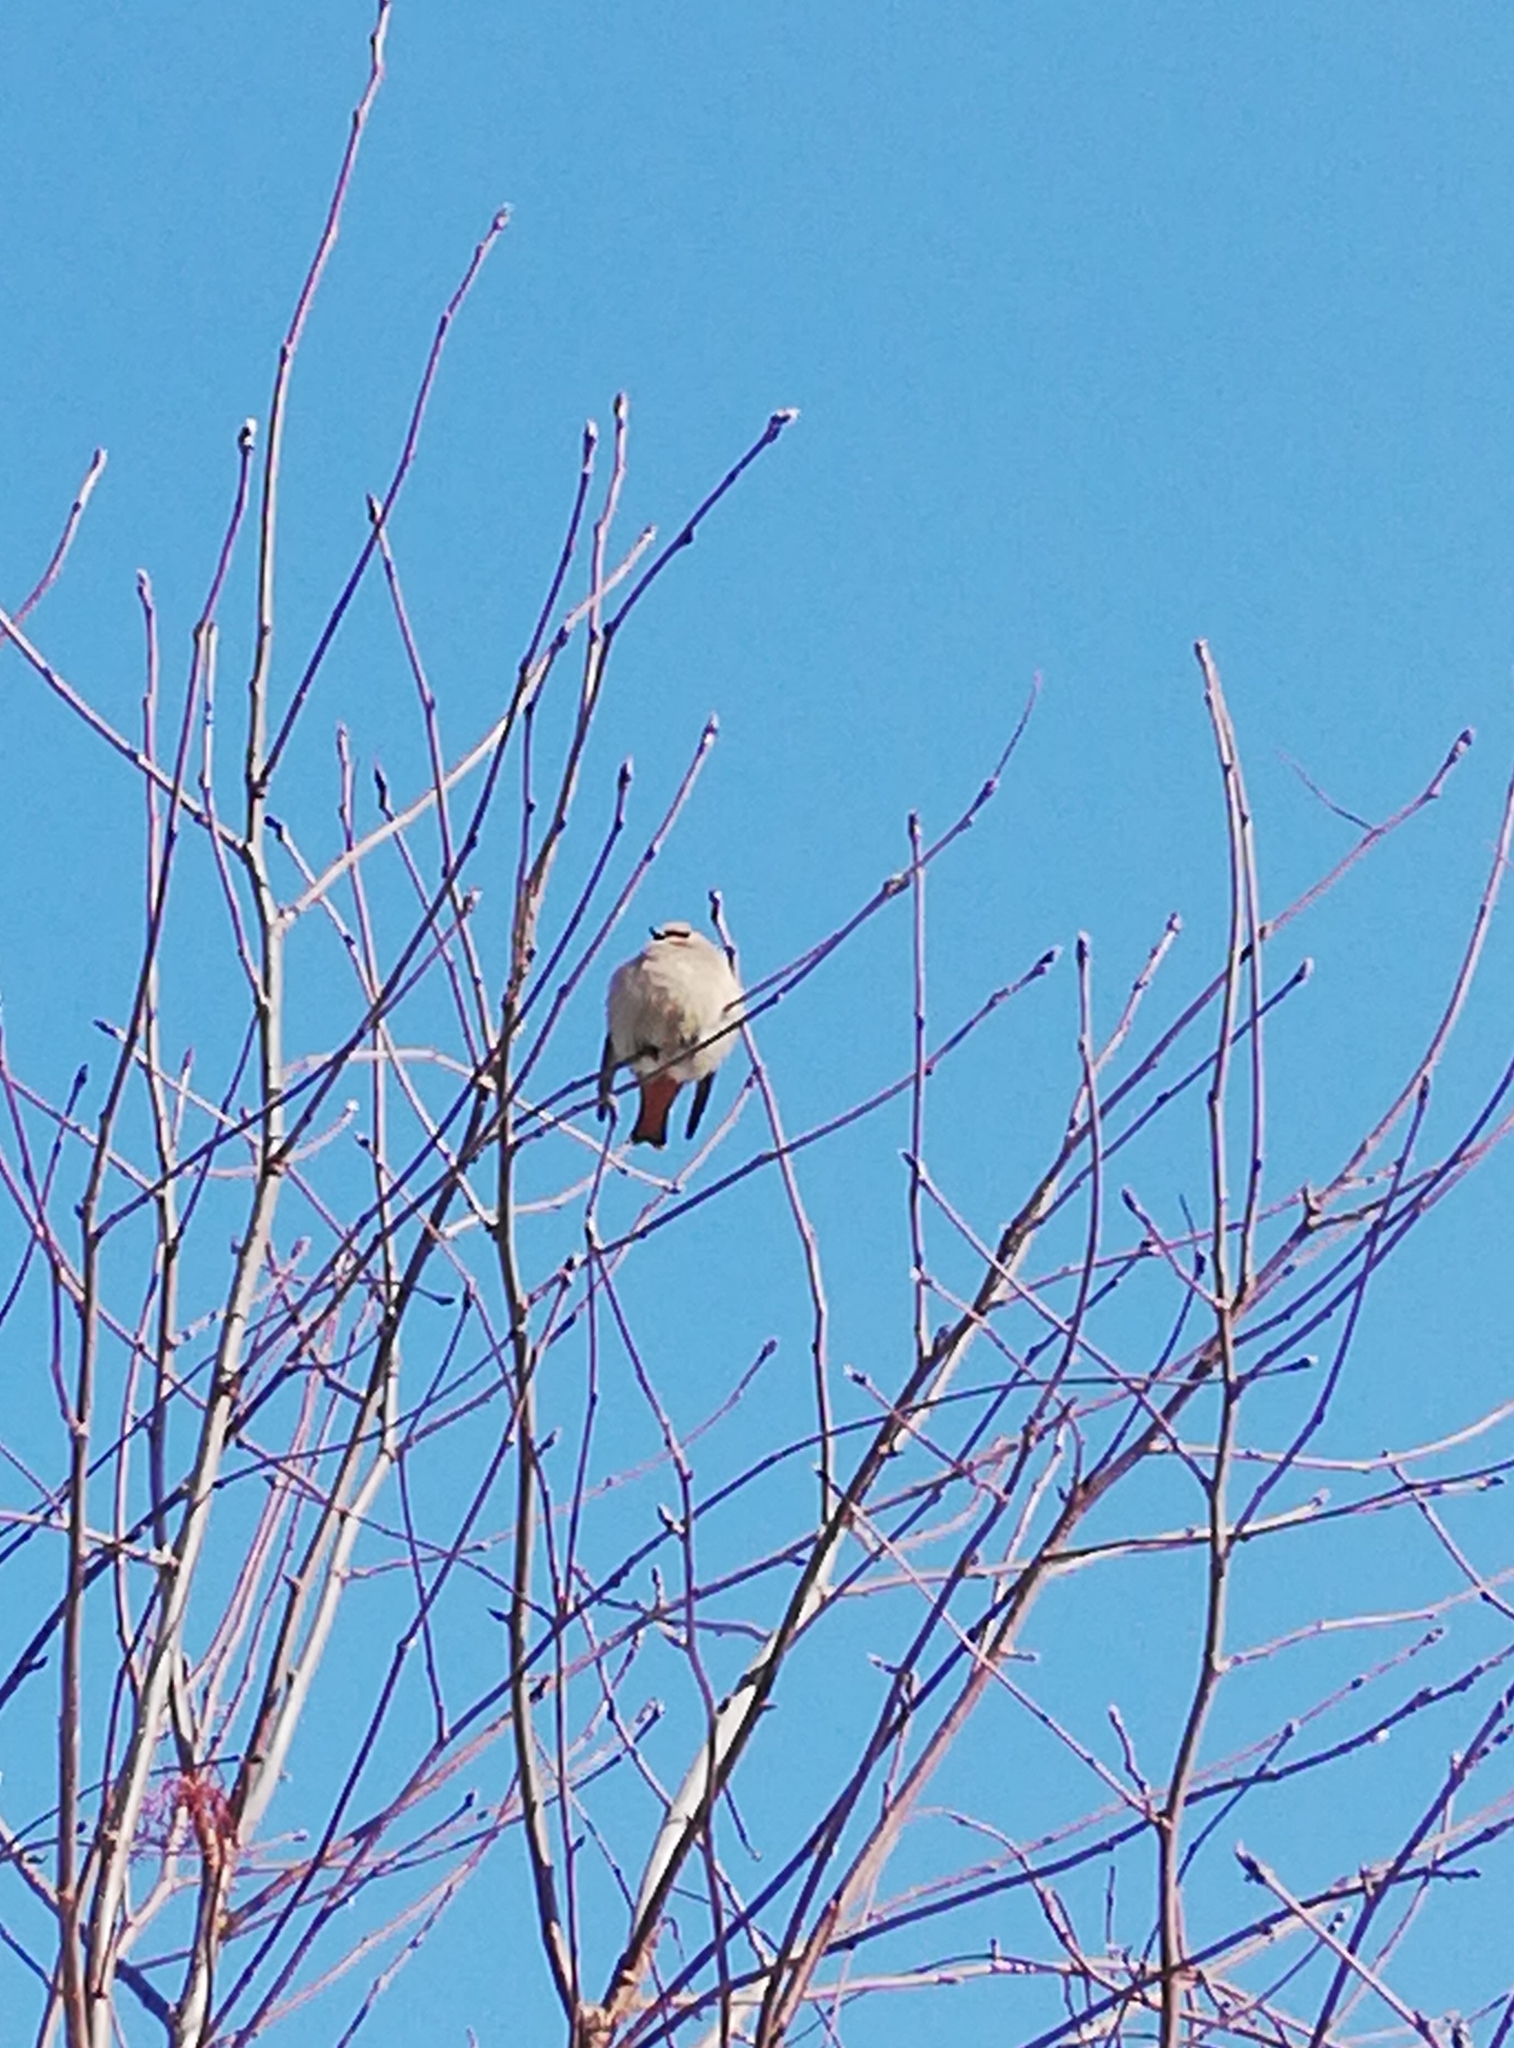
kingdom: Animalia
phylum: Chordata
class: Aves
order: Passeriformes
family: Bombycillidae
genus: Bombycilla
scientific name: Bombycilla garrulus
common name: Bohemian waxwing
